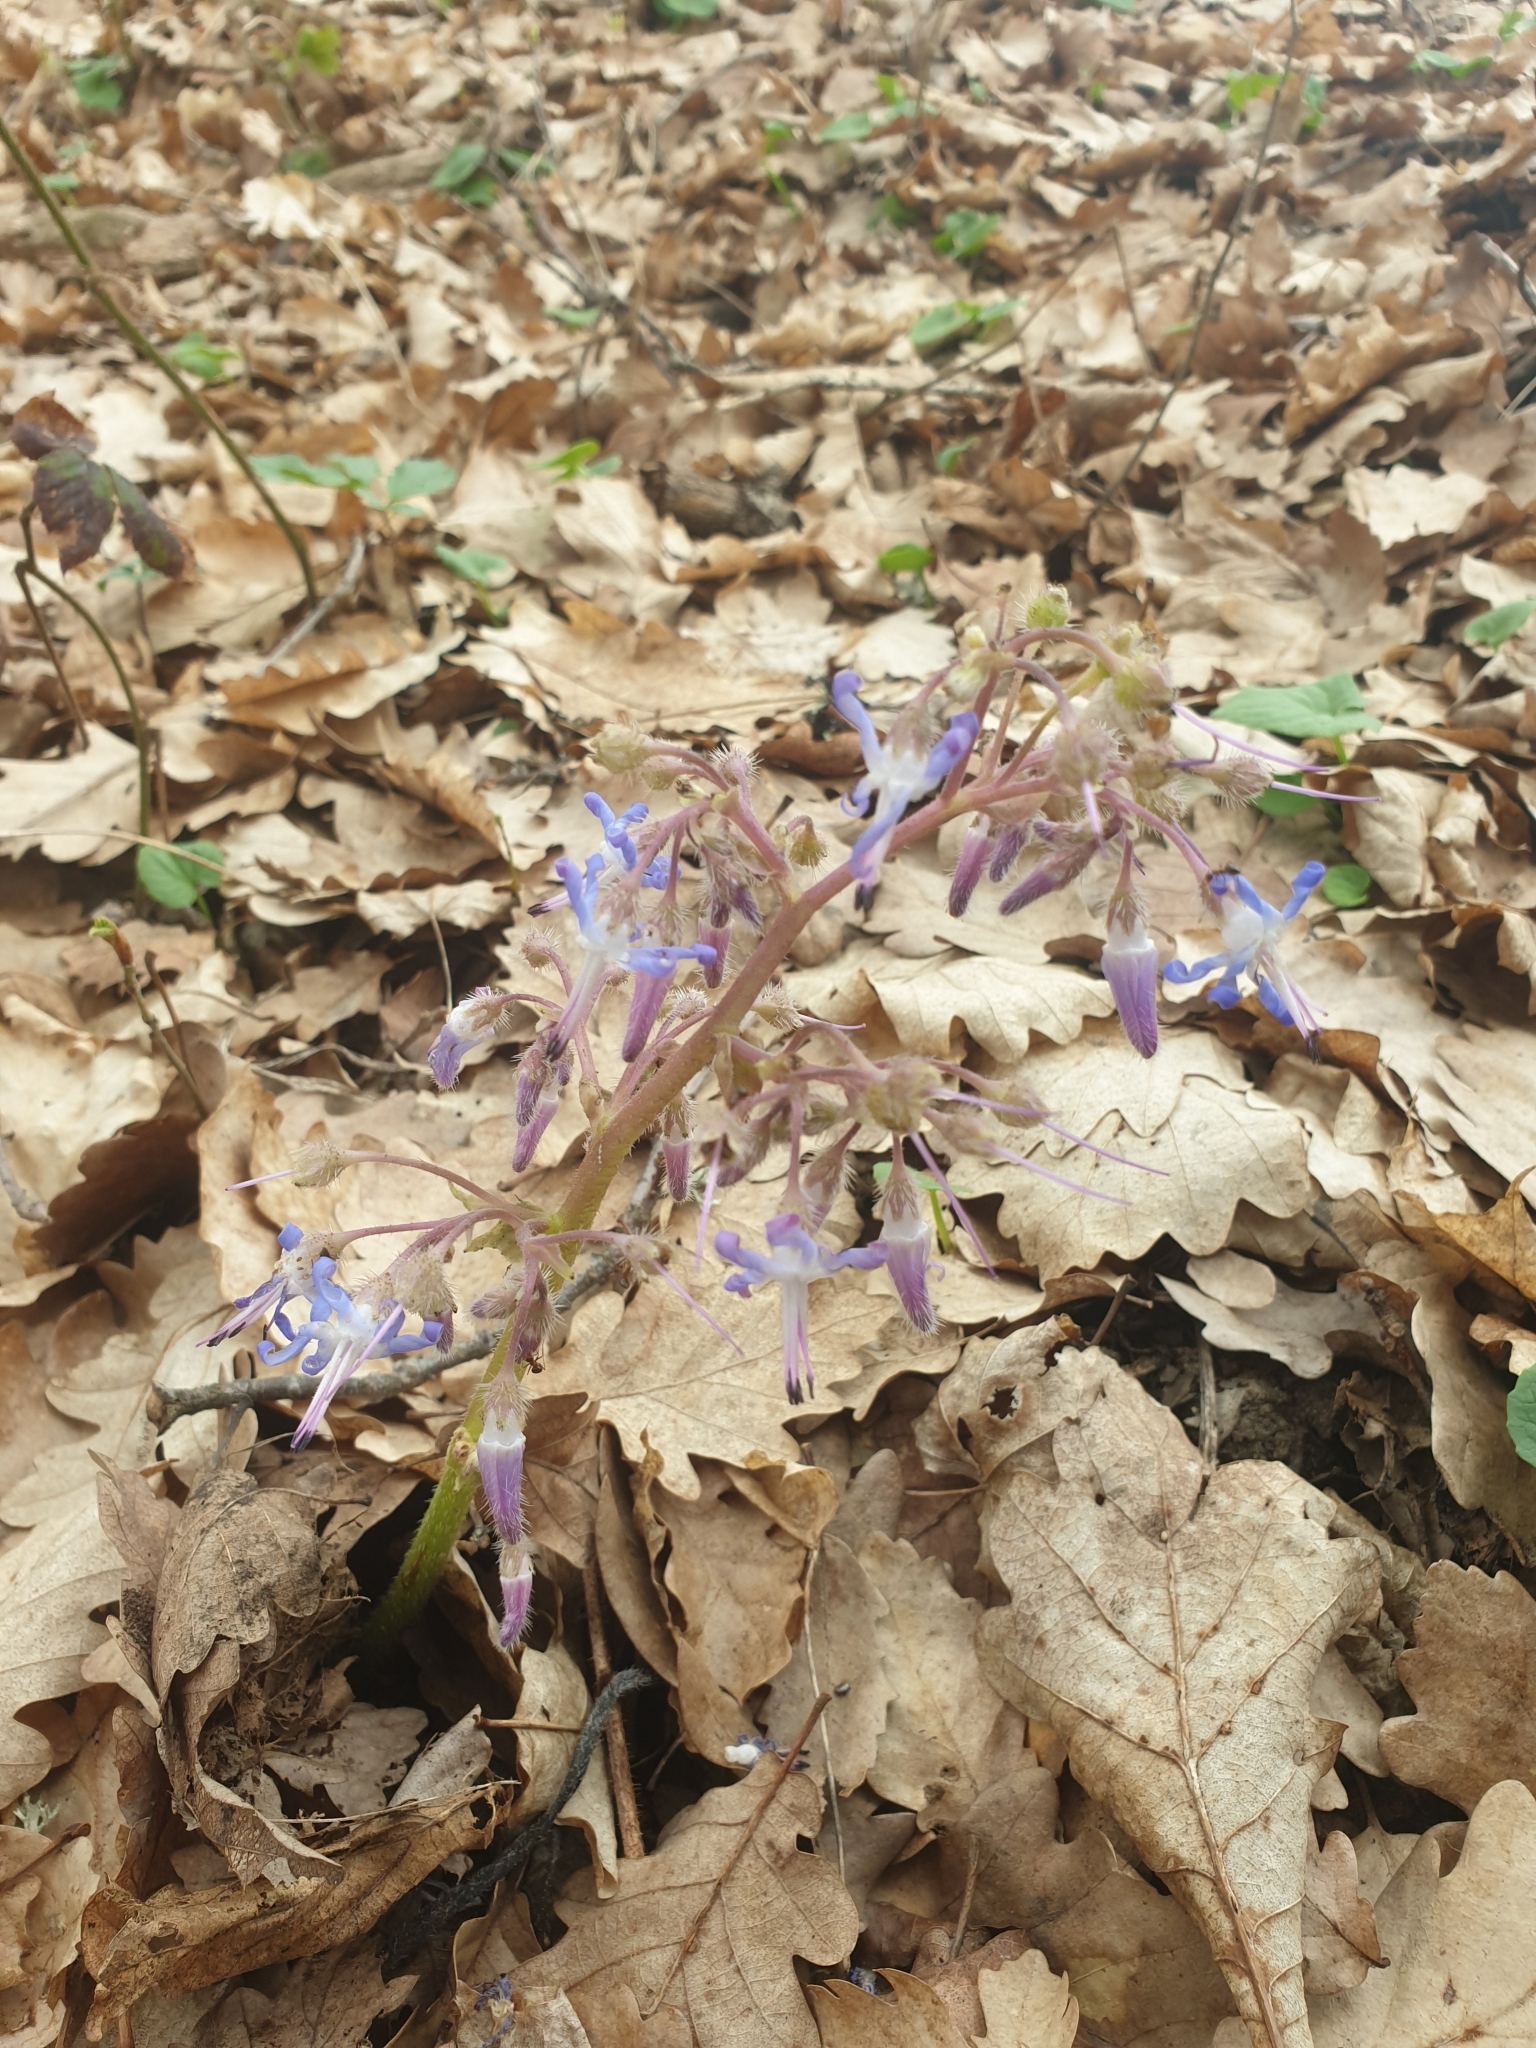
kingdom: Plantae
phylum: Tracheophyta
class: Magnoliopsida
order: Boraginales
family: Boraginaceae
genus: Trachystemon
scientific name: Trachystemon orientale
